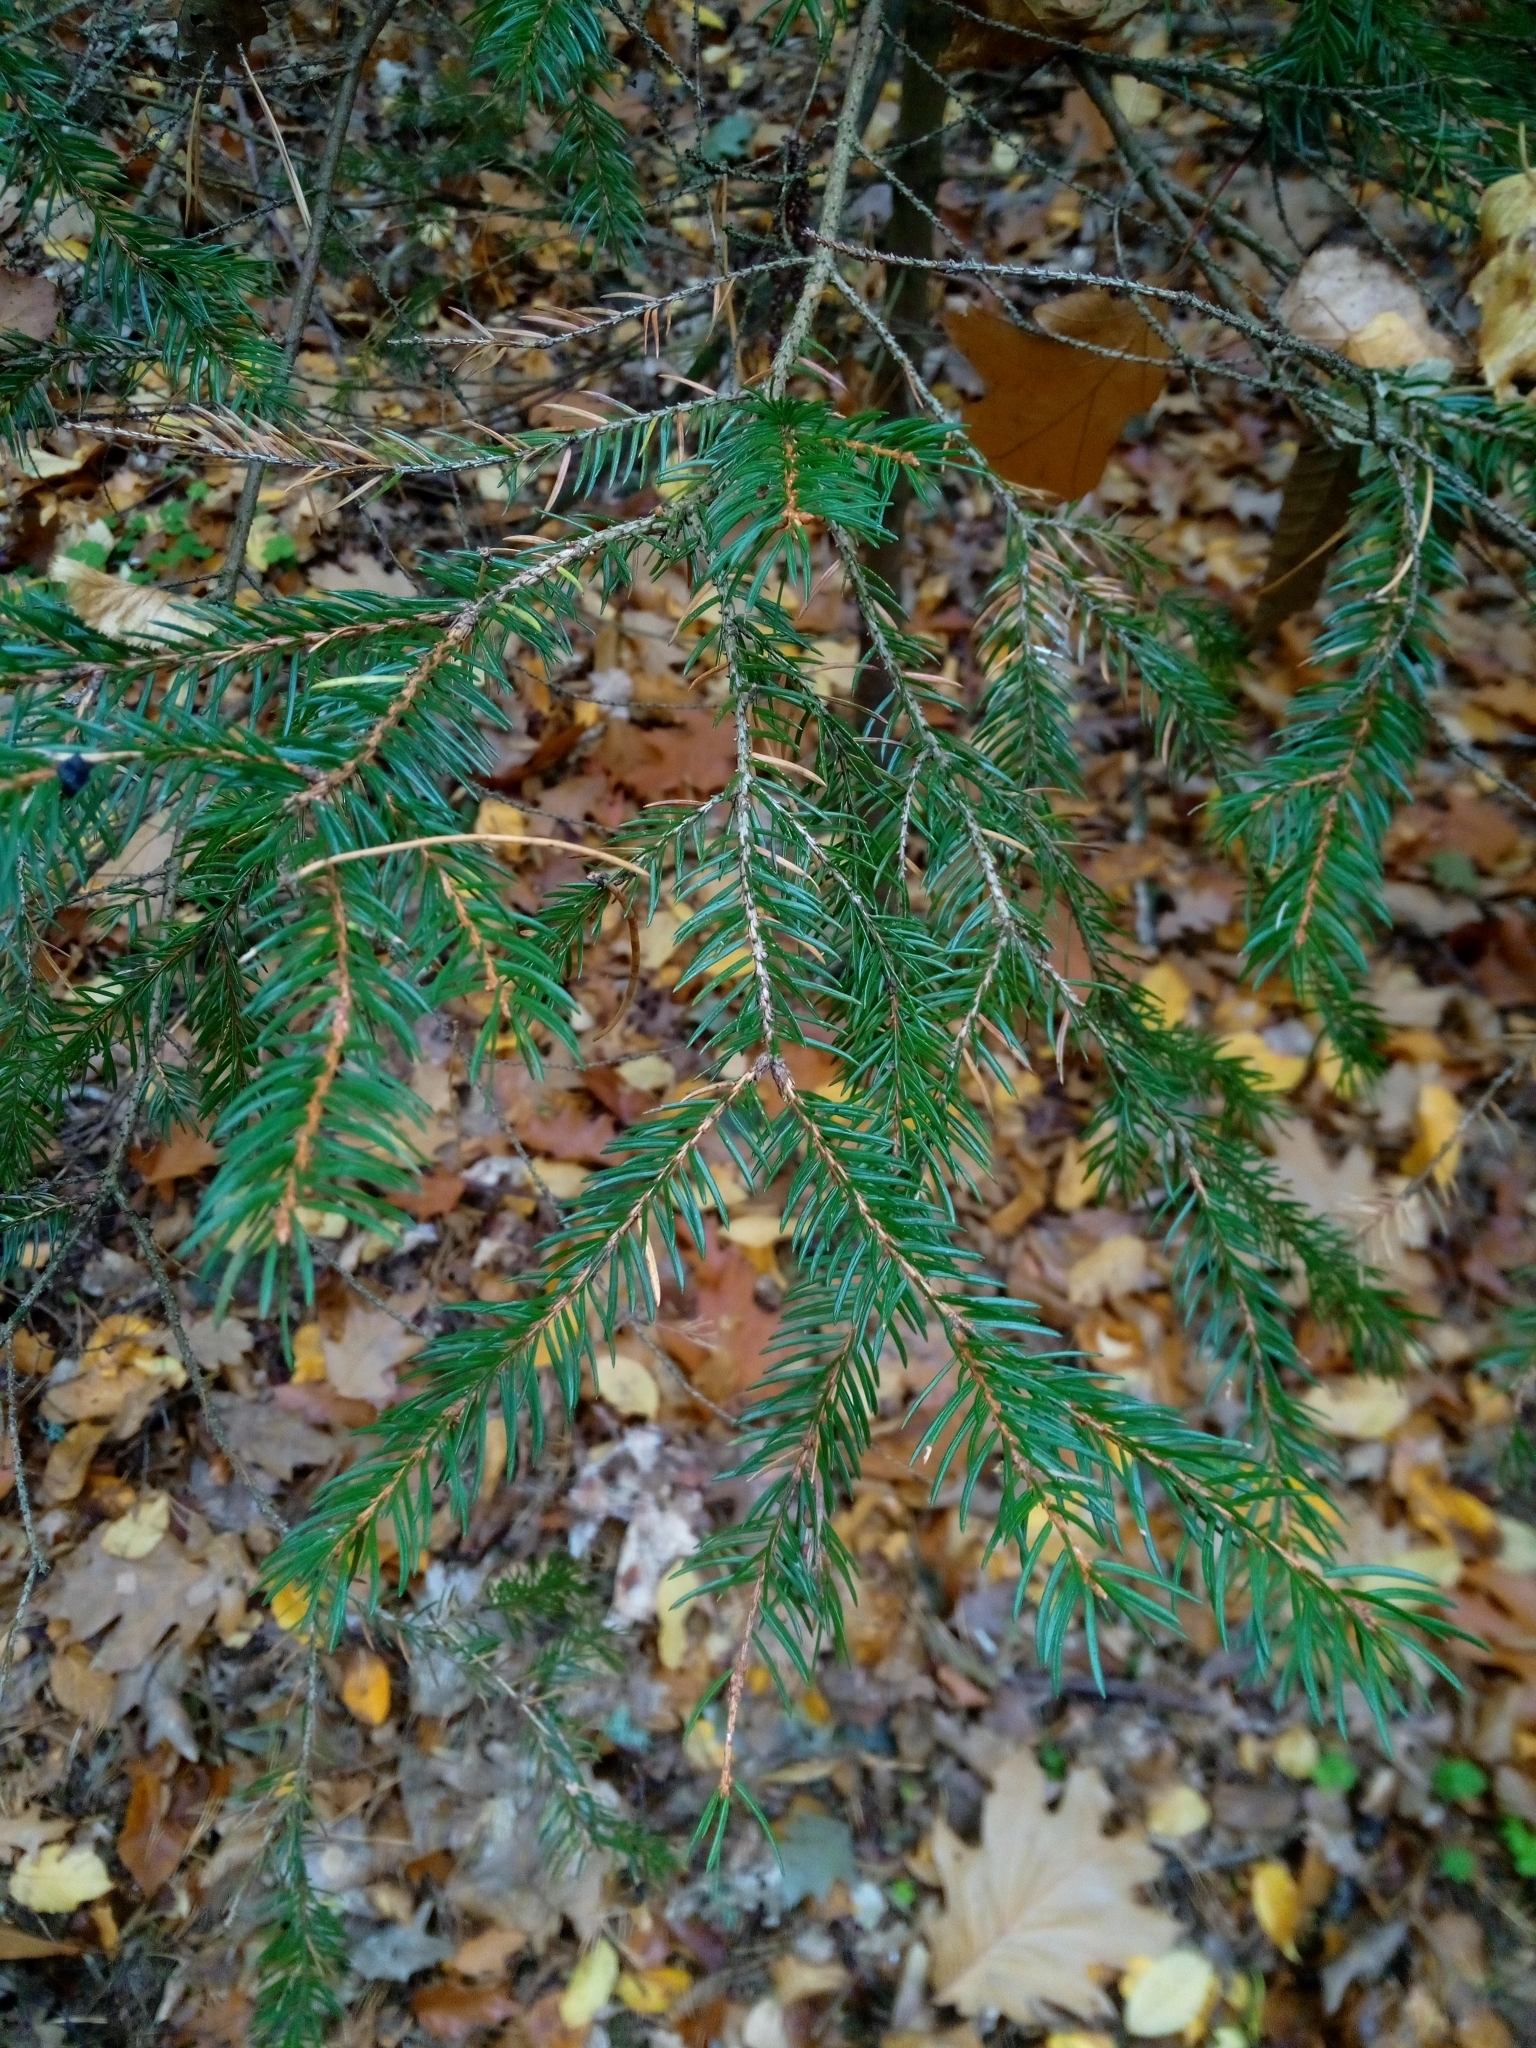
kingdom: Plantae
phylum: Tracheophyta
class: Pinopsida
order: Pinales
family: Pinaceae
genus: Picea
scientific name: Picea abies
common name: Norway spruce
